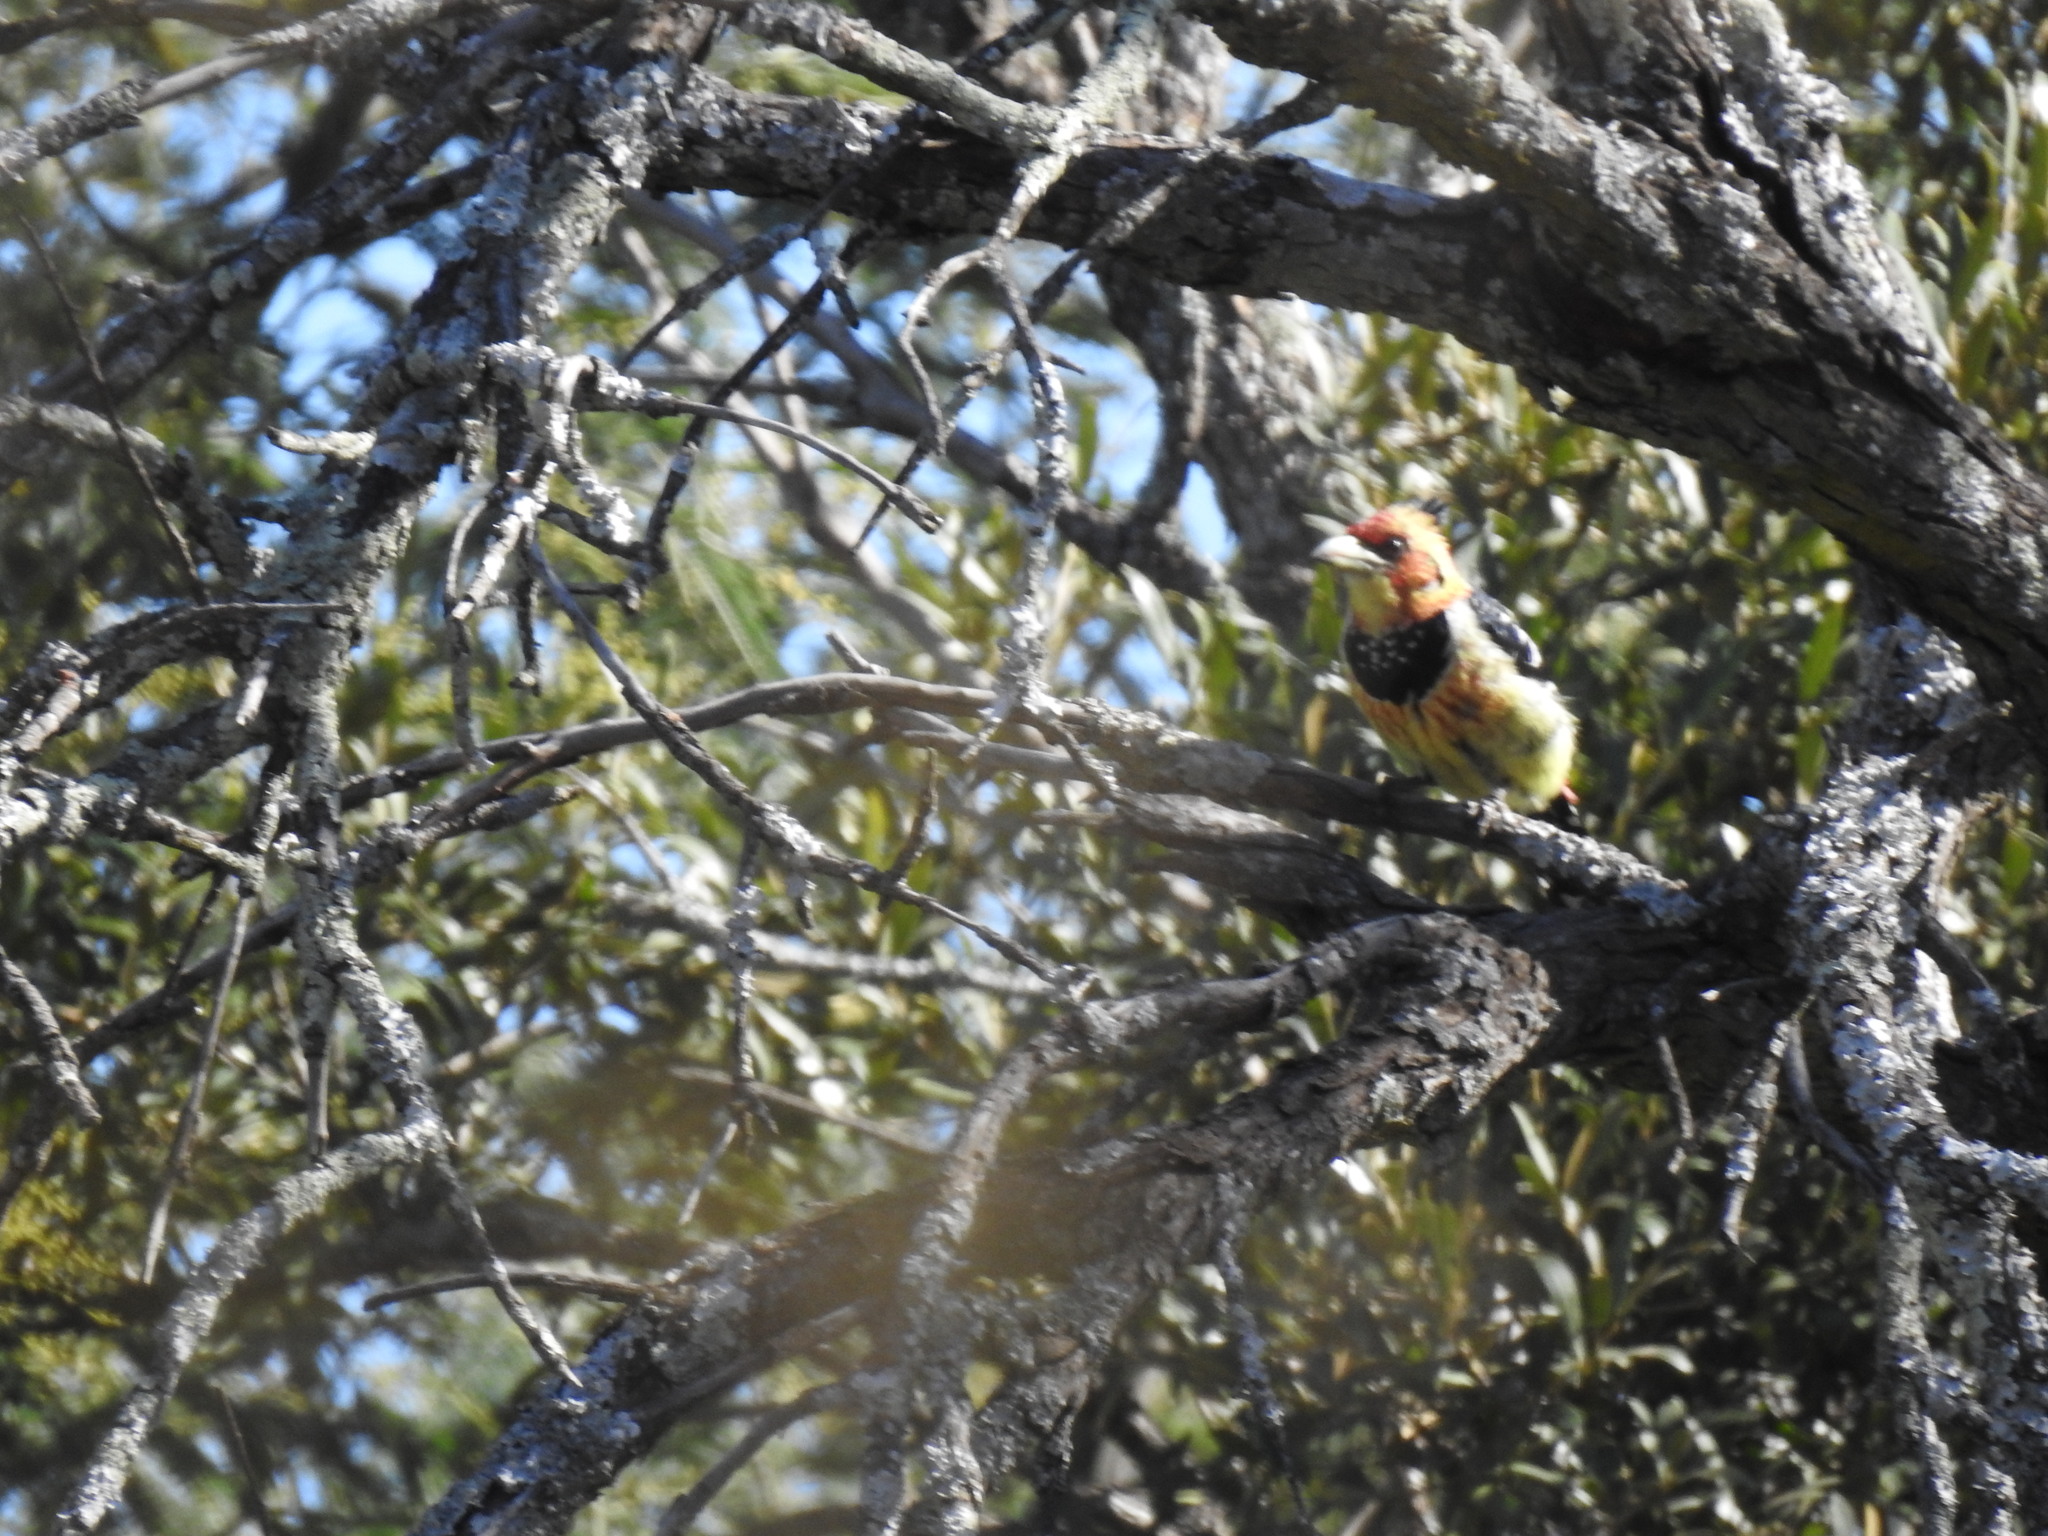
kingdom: Animalia
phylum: Chordata
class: Aves
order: Piciformes
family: Lybiidae
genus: Trachyphonus
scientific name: Trachyphonus vaillantii
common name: Crested barbet
